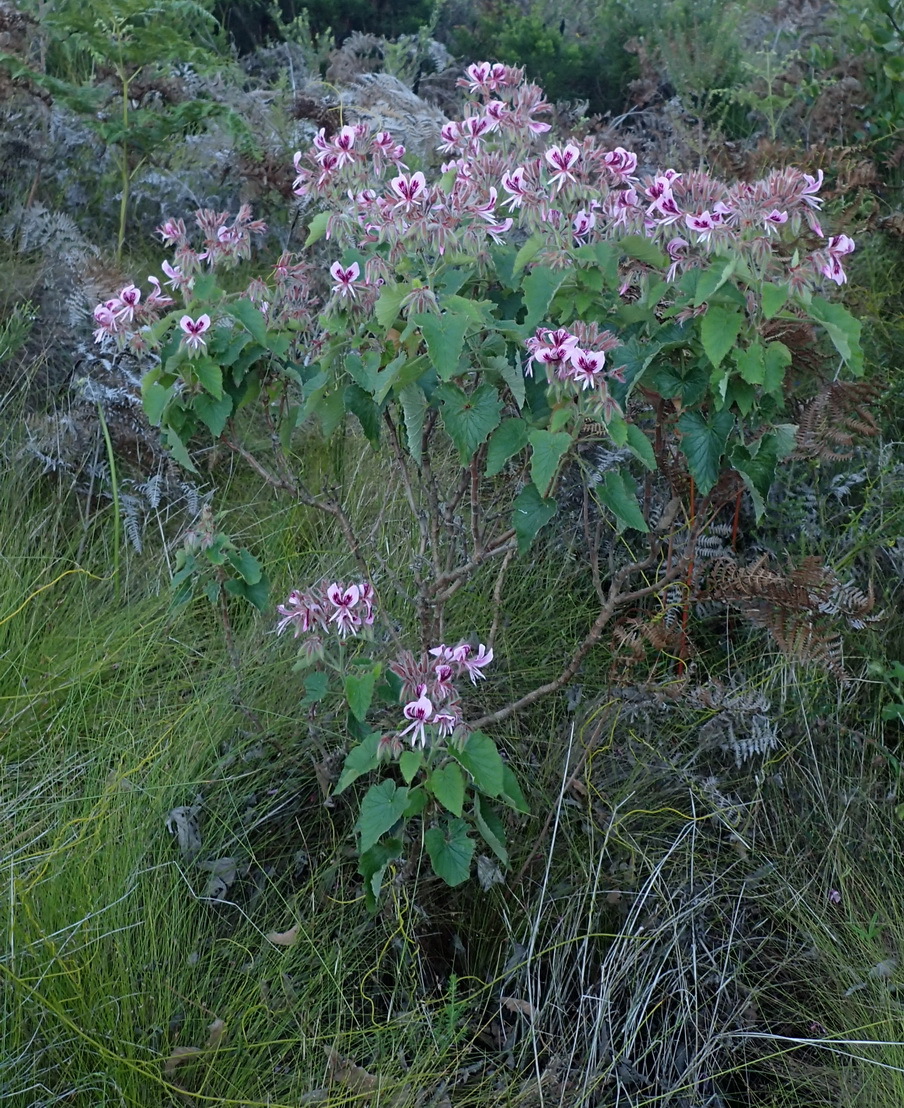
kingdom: Plantae
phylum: Tracheophyta
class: Magnoliopsida
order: Geraniales
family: Geraniaceae
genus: Pelargonium
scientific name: Pelargonium cordifolium
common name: Heart-leaf pelargonium
